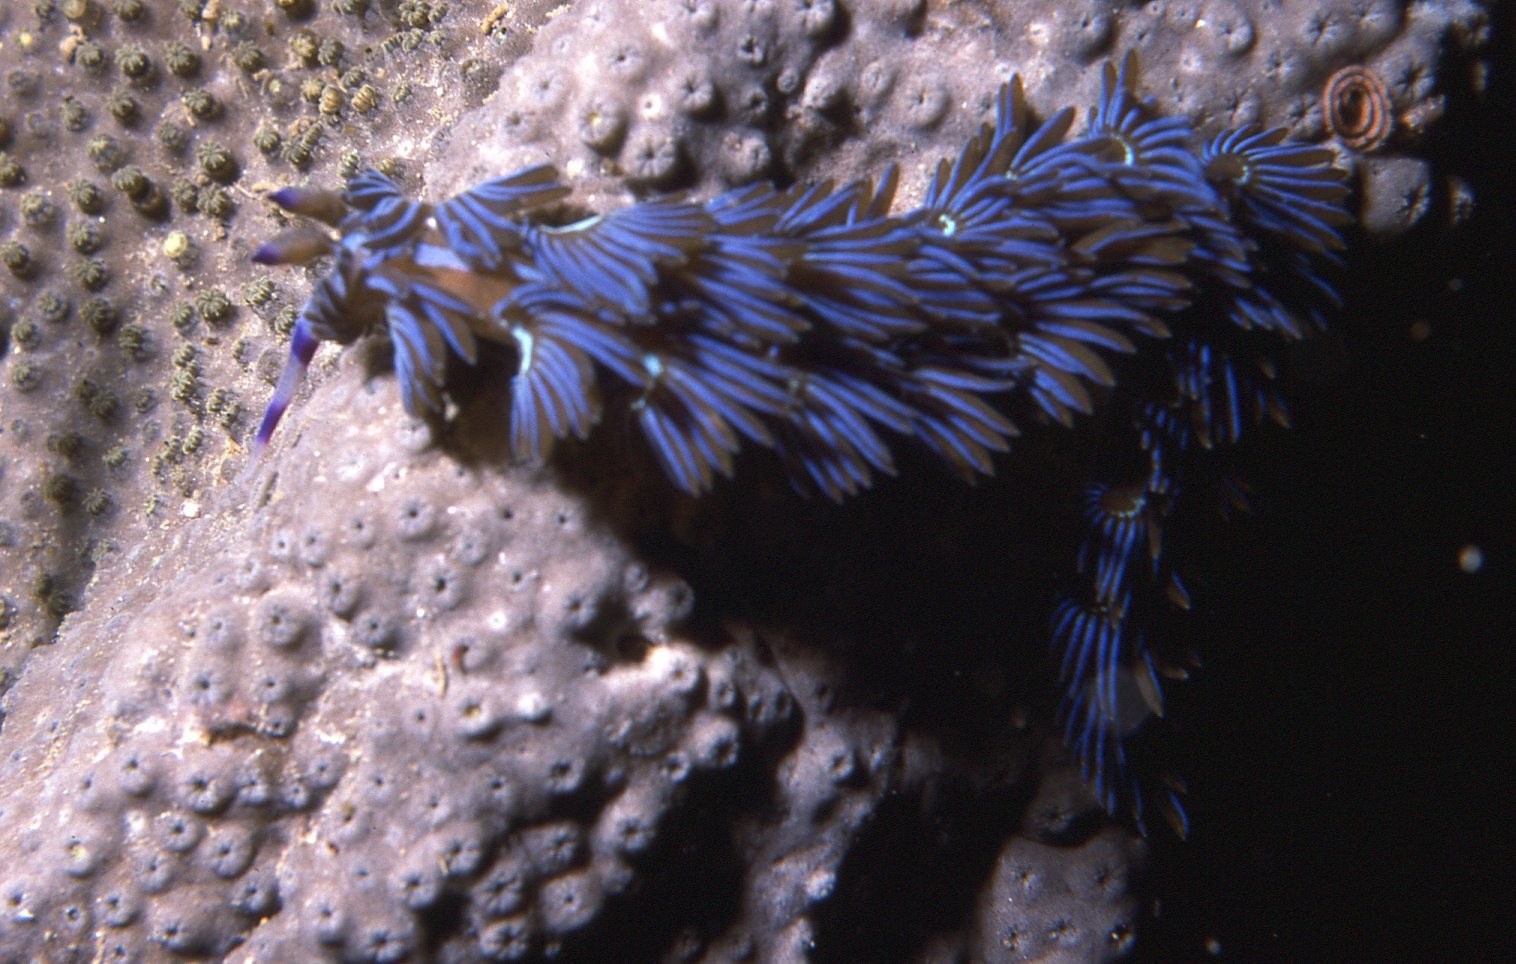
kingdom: Animalia
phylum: Mollusca
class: Gastropoda
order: Nudibranchia
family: Facelinidae
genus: Pteraeolidia
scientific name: Pteraeolidia ianthina
